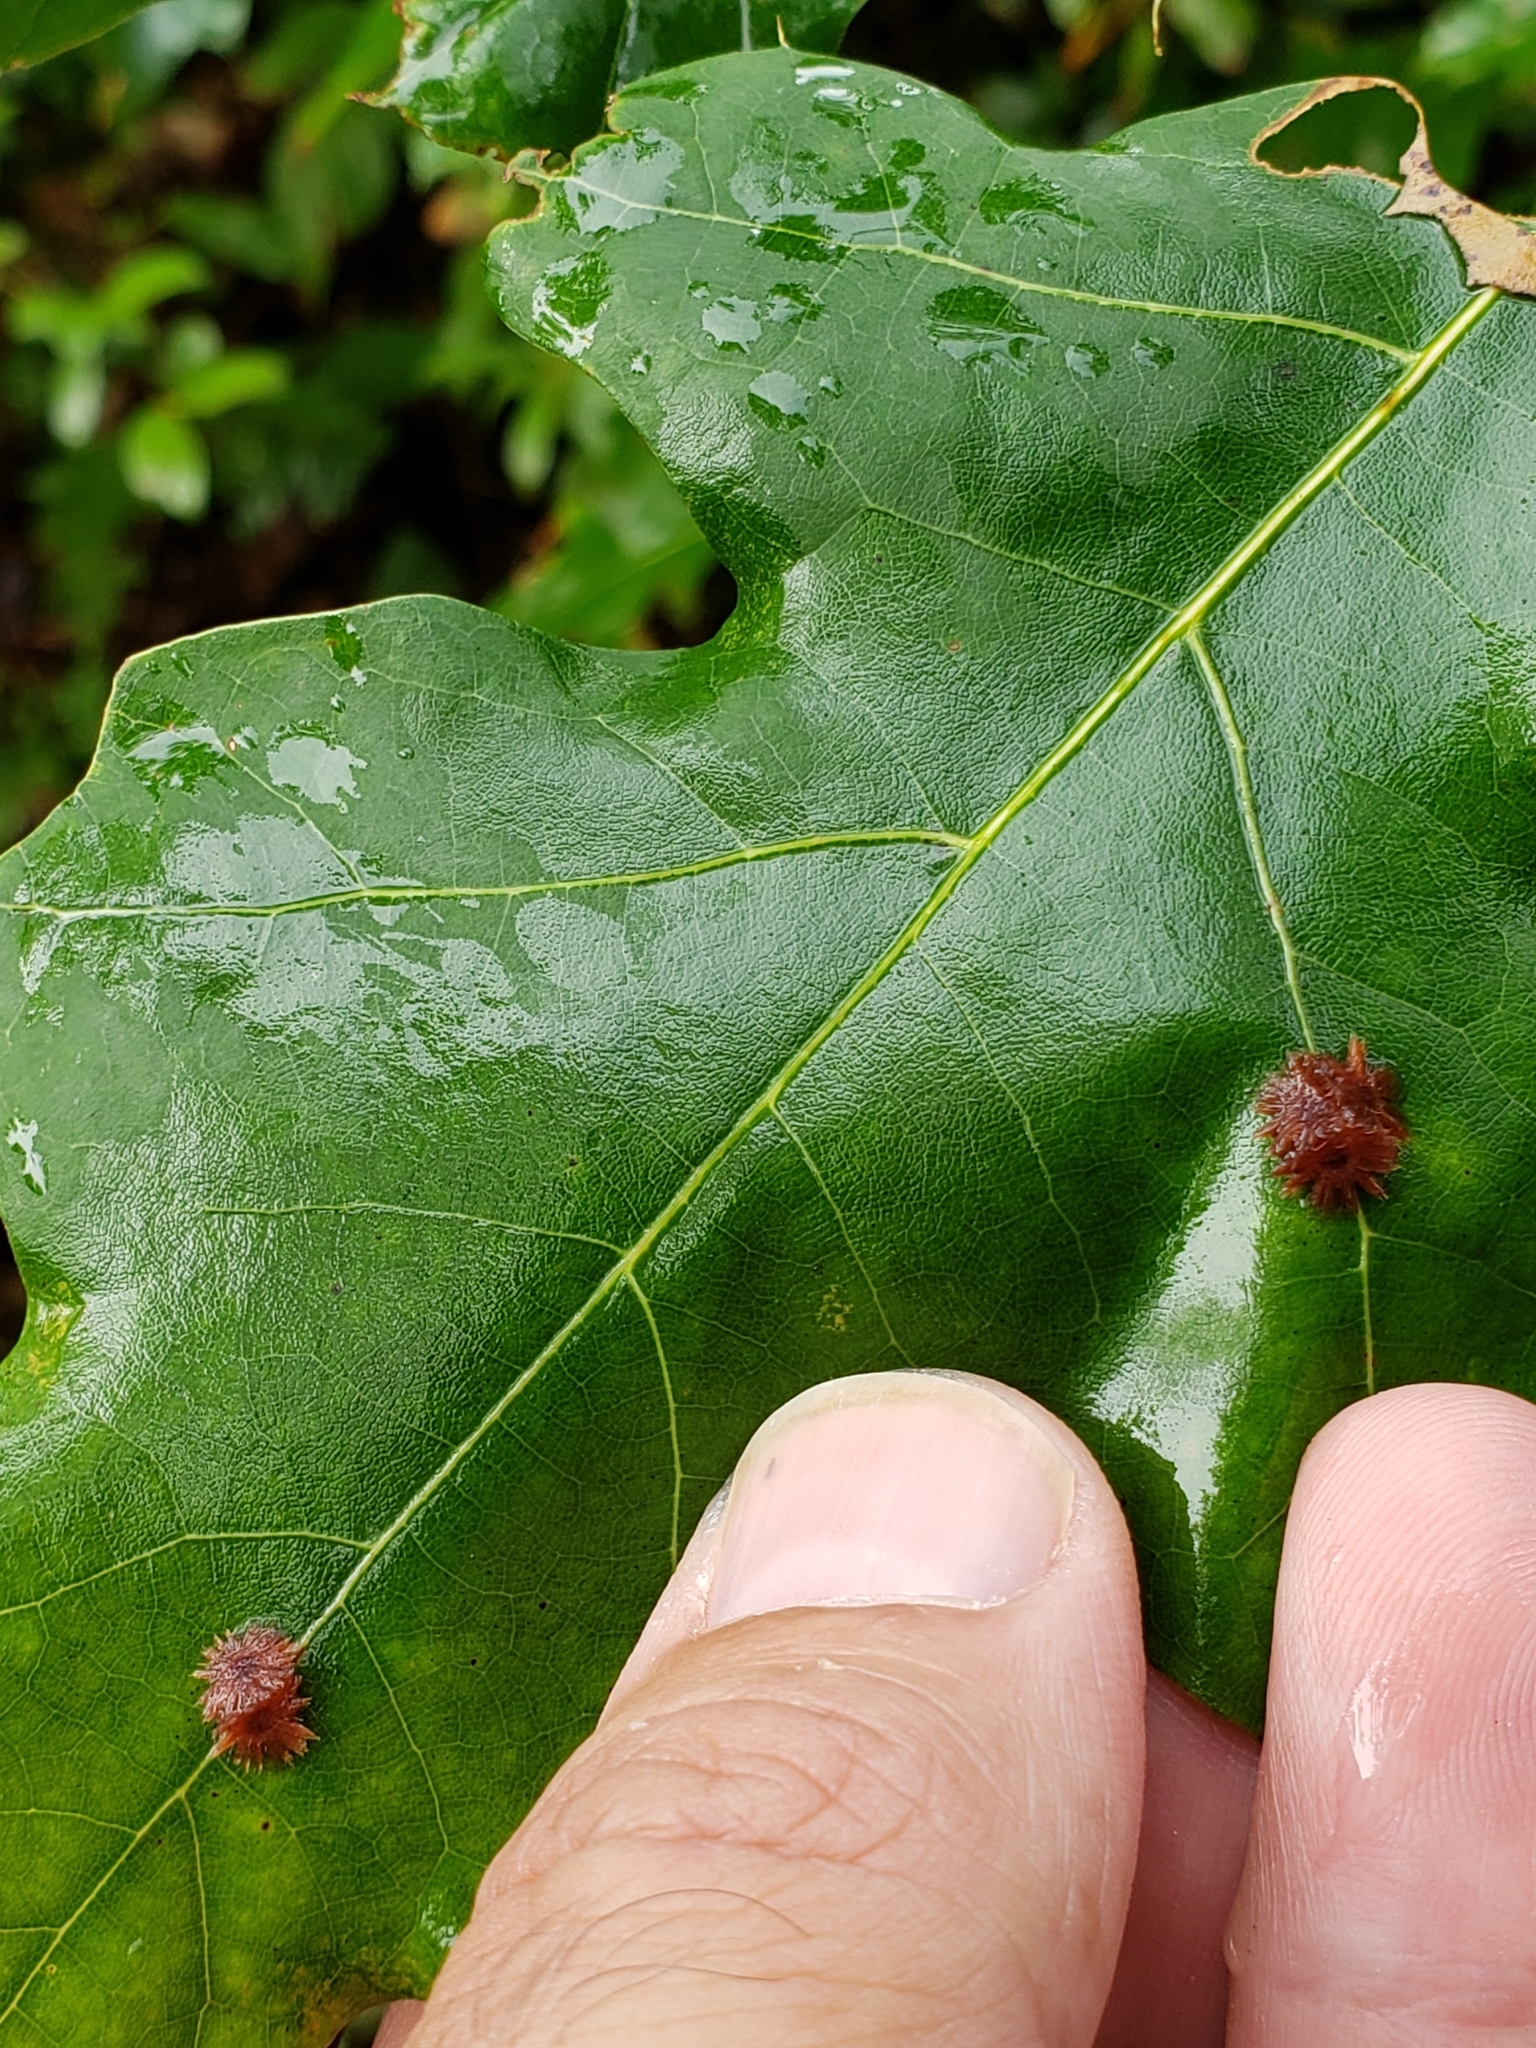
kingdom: Animalia
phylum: Arthropoda
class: Insecta
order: Hymenoptera
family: Cynipidae
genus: Callirhytis
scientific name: Callirhytis
